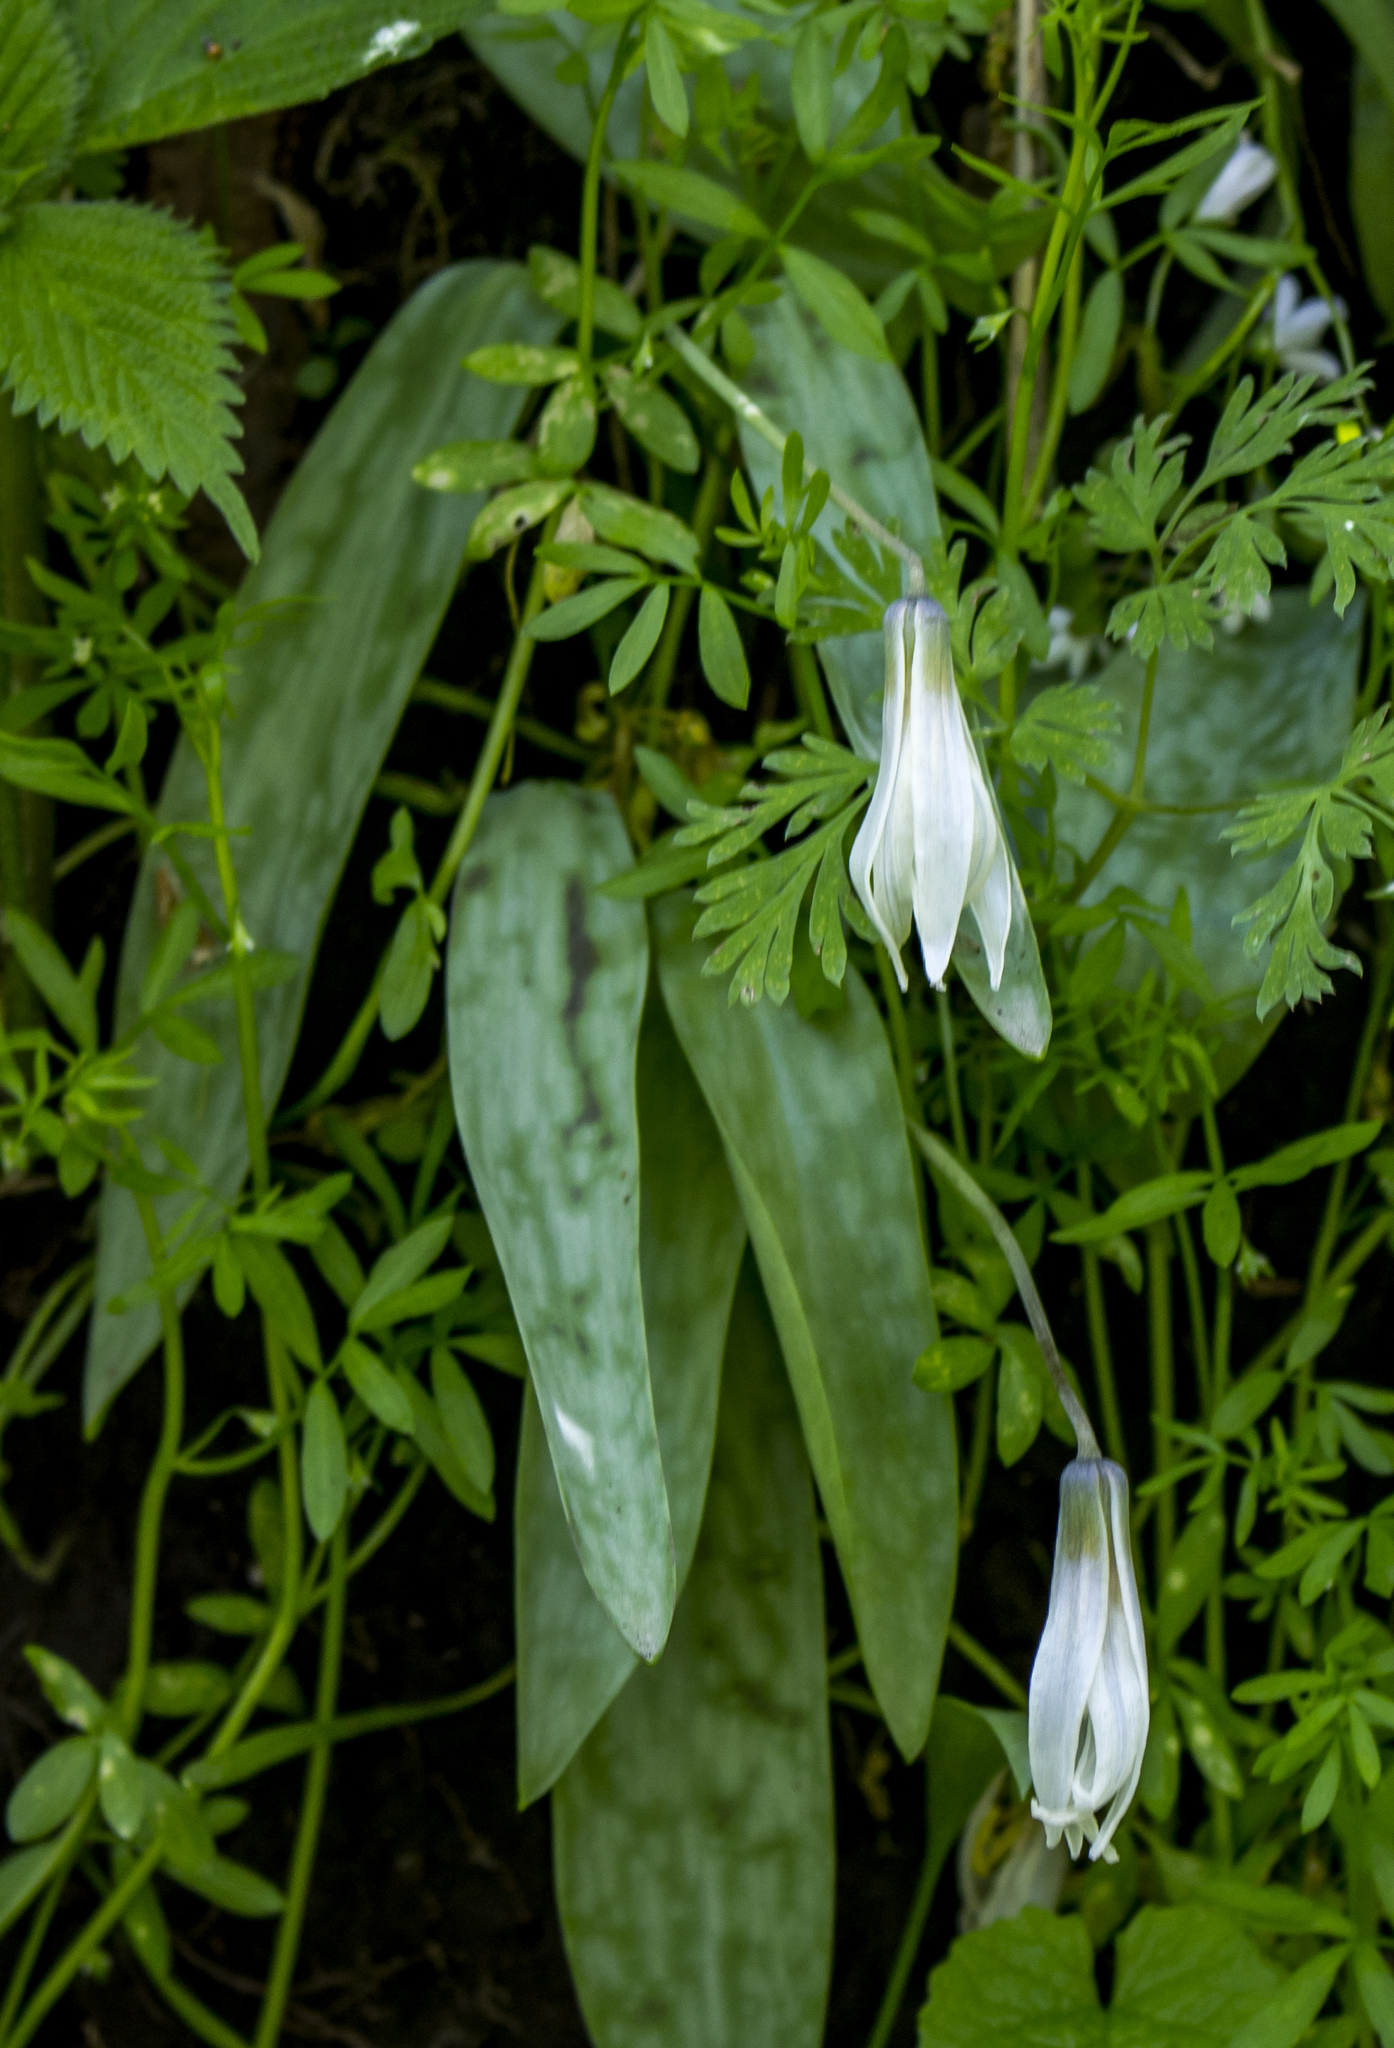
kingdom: Plantae
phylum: Tracheophyta
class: Liliopsida
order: Liliales
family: Liliaceae
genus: Erythronium
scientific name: Erythronium albidum
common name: White trout-lily
